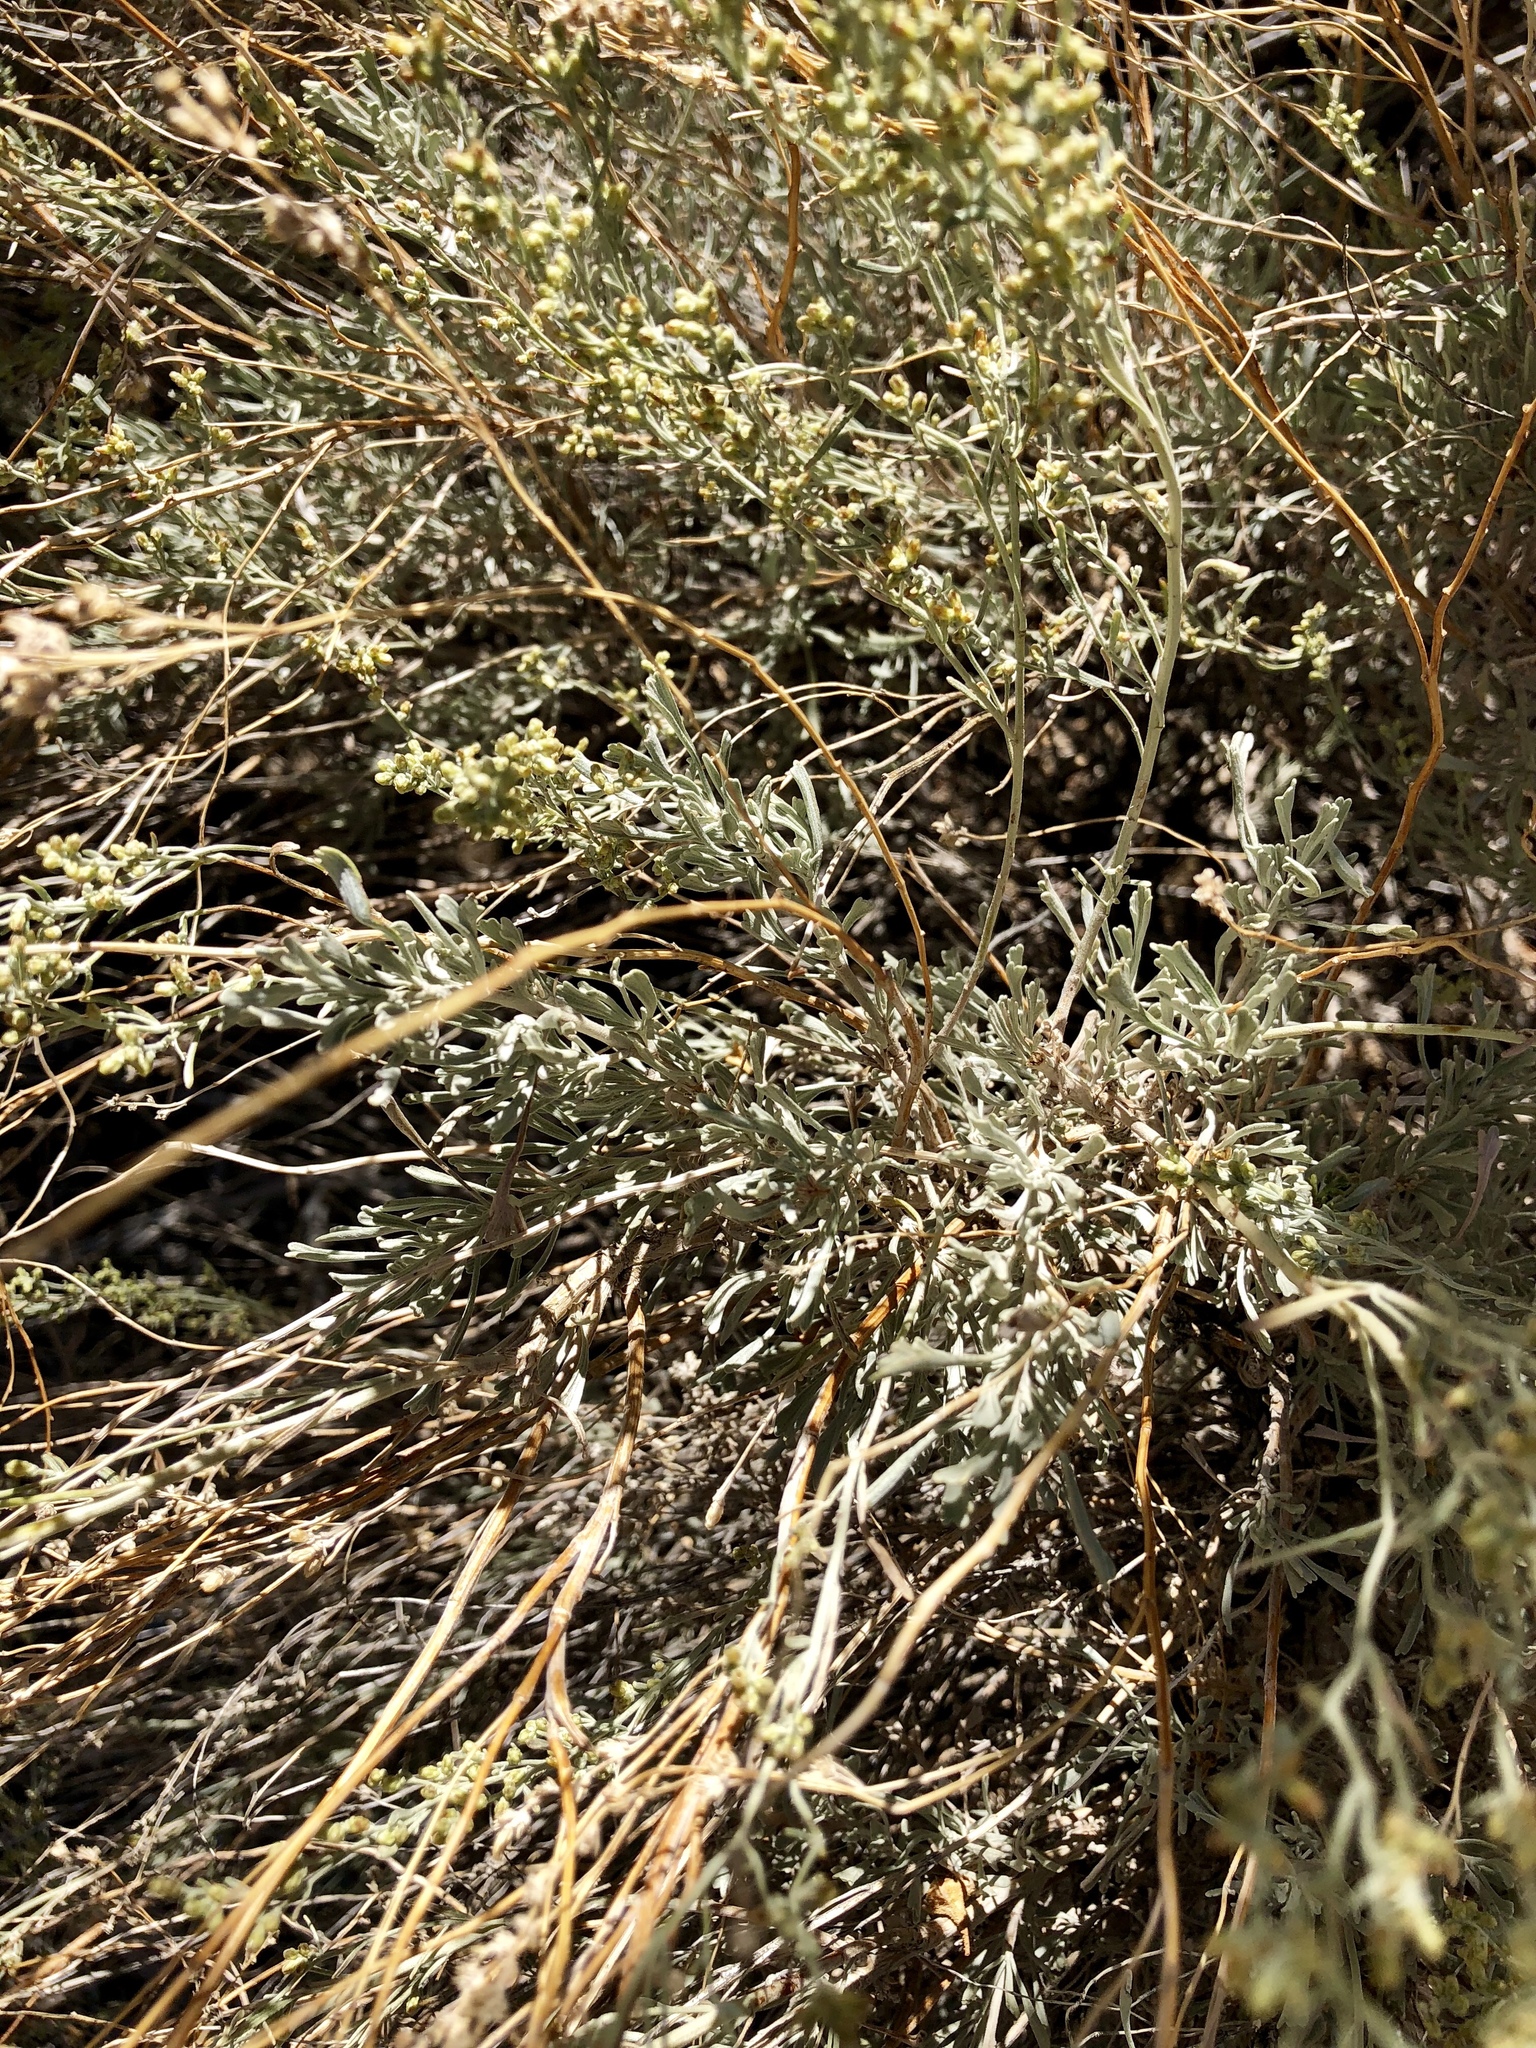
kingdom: Plantae
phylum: Tracheophyta
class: Magnoliopsida
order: Asterales
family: Asteraceae
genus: Artemisia
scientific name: Artemisia tridentata
